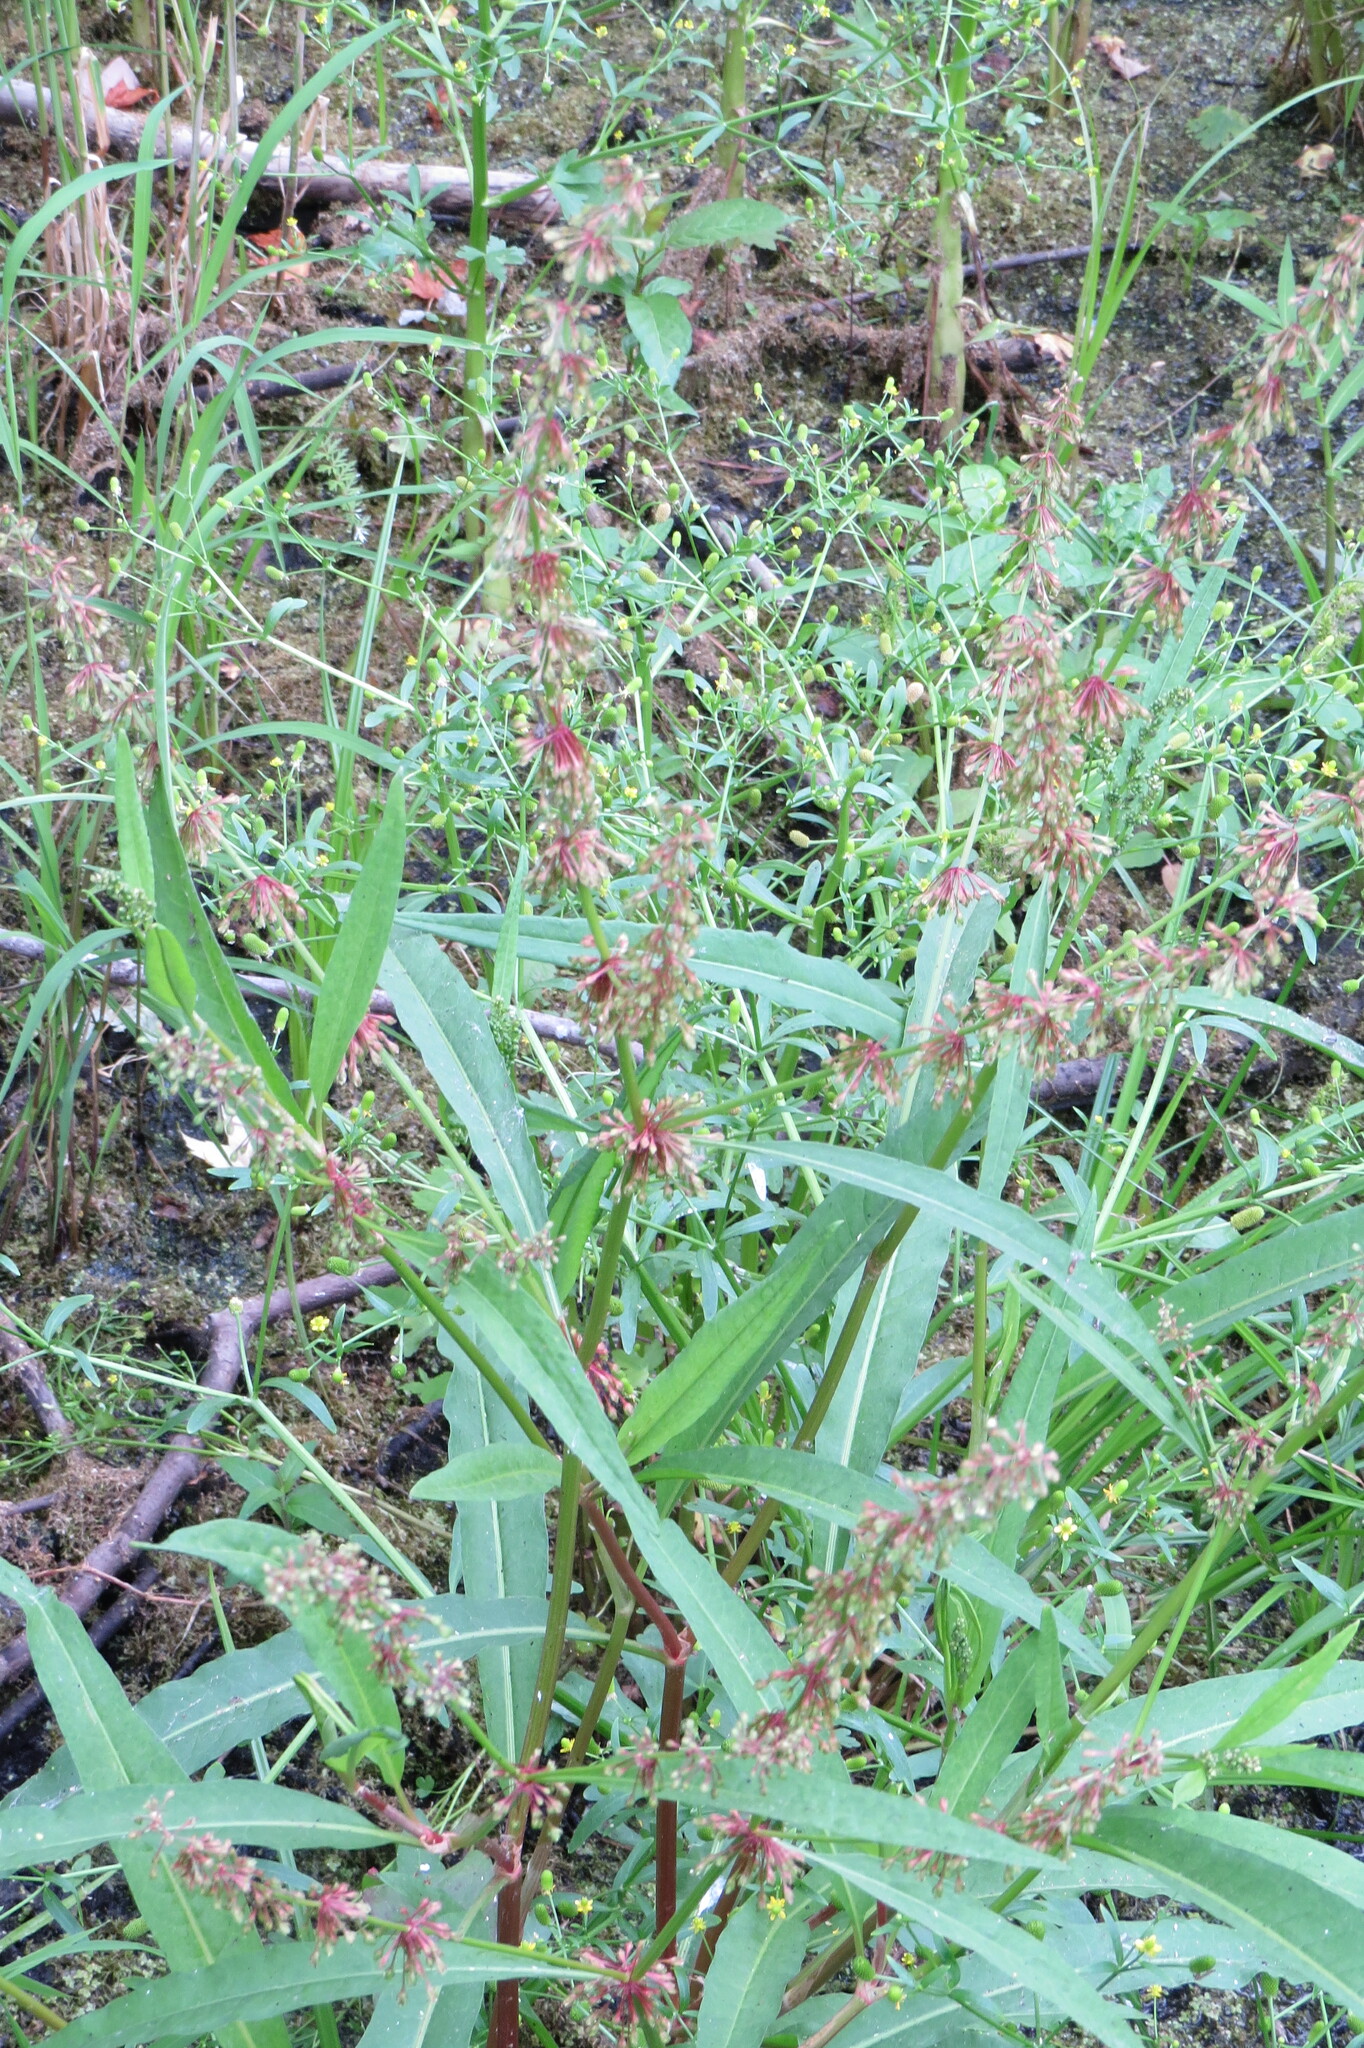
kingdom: Plantae
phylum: Tracheophyta
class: Magnoliopsida
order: Caryophyllales
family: Polygonaceae
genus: Rumex
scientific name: Rumex verticillatus
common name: Swamp dock
